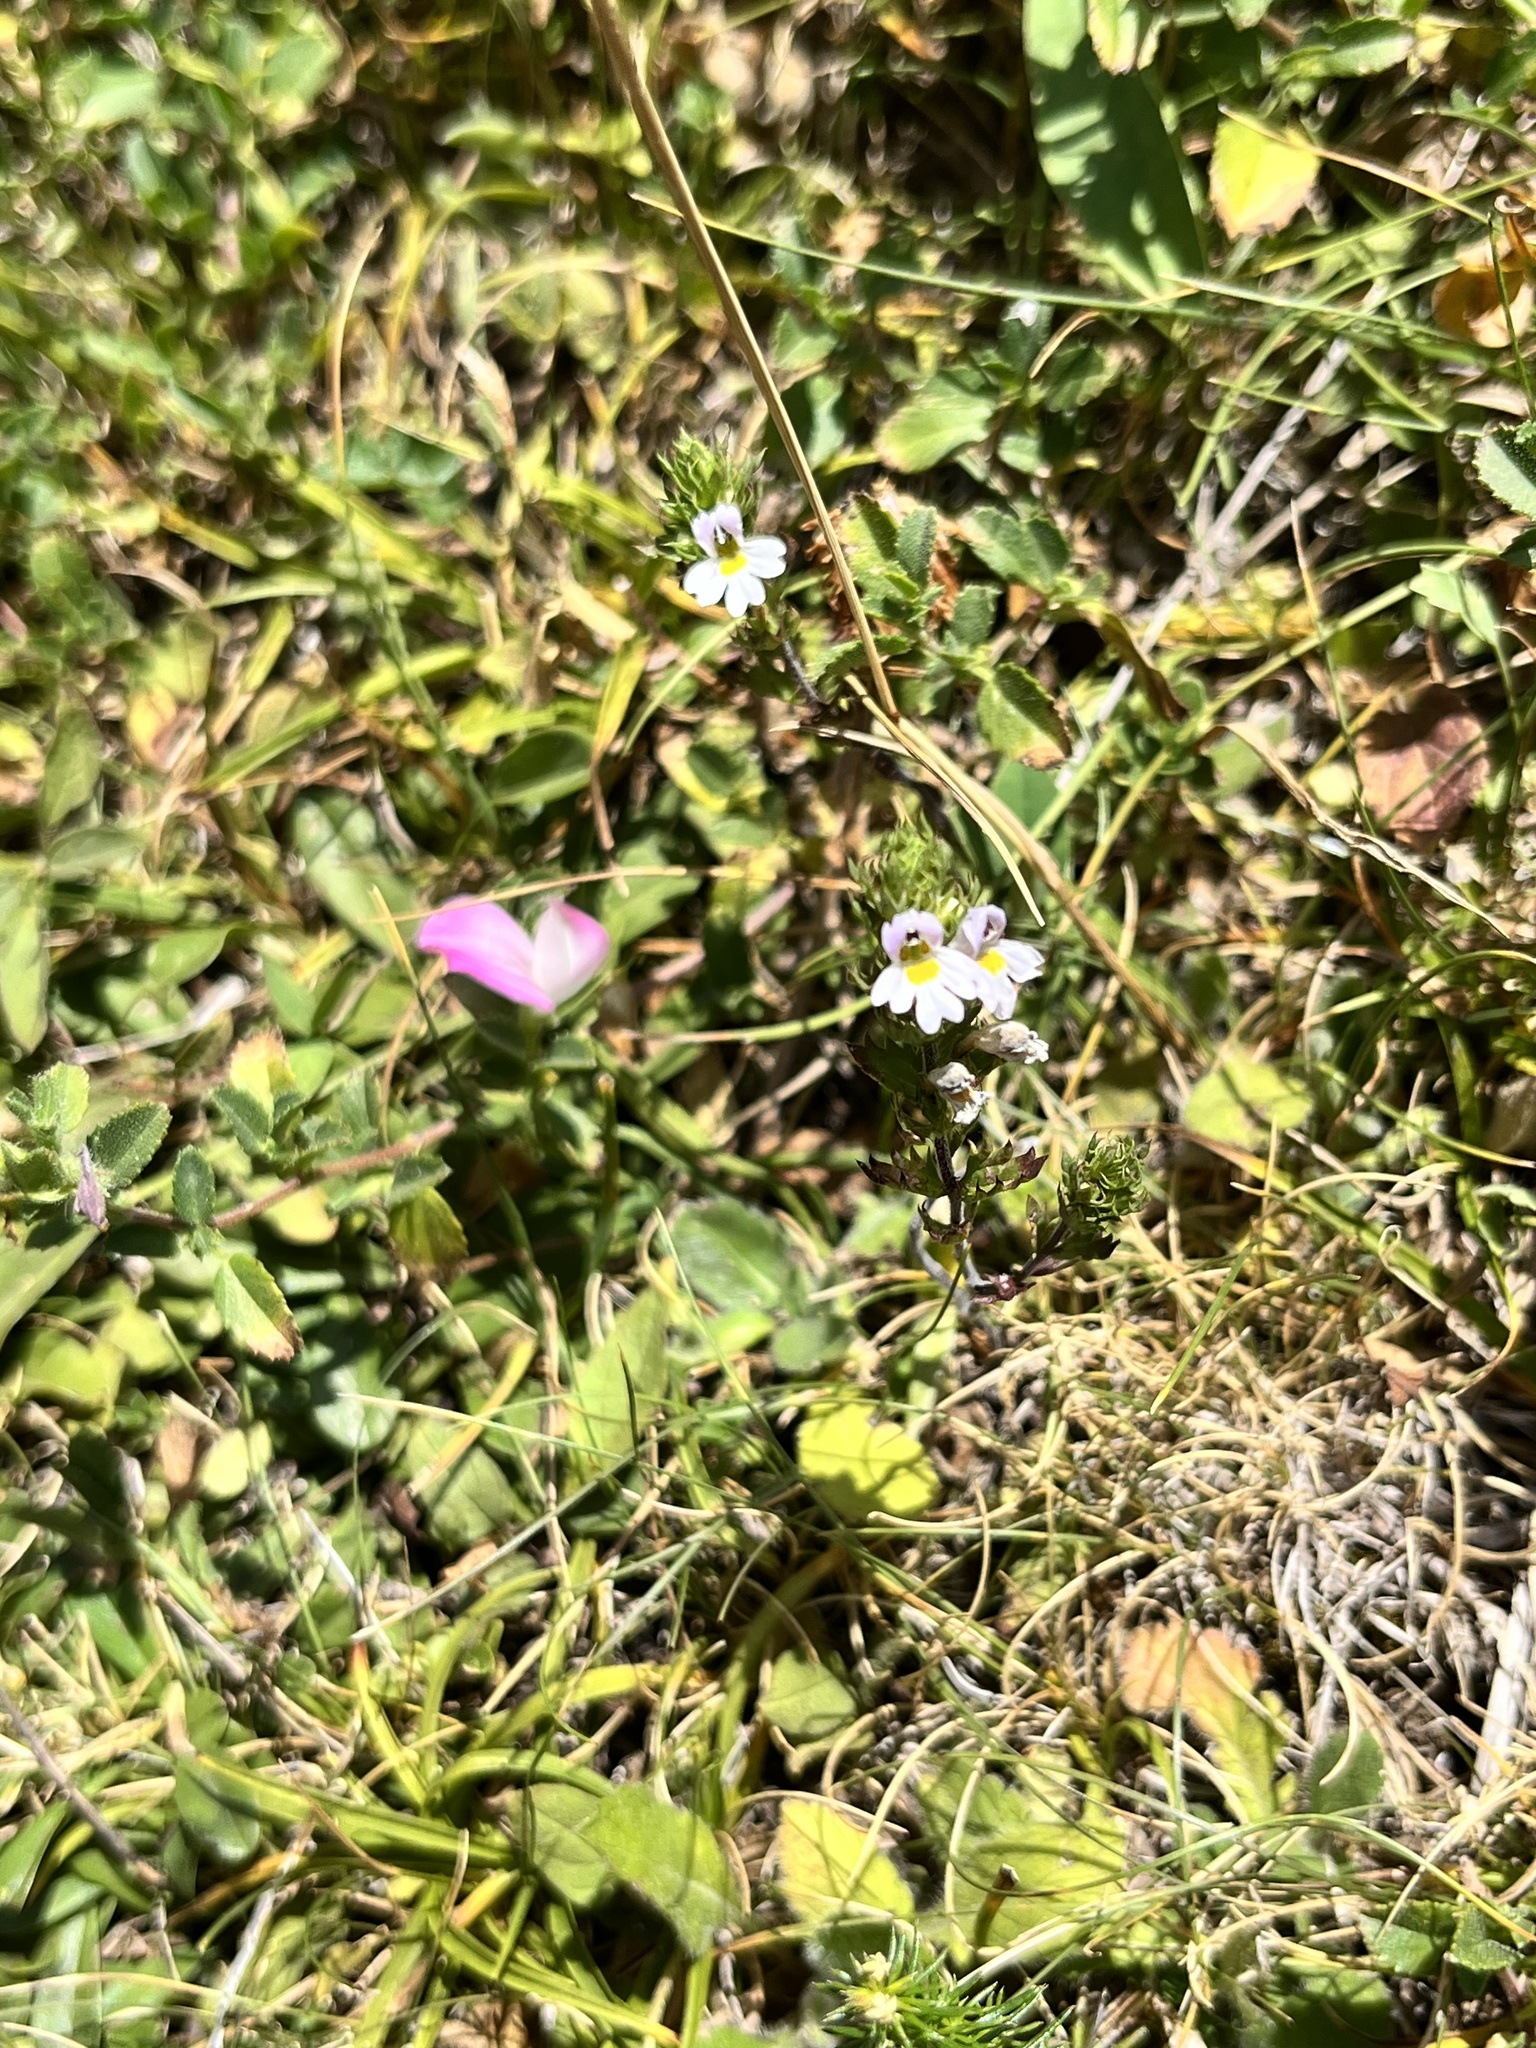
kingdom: Plantae
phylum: Tracheophyta
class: Magnoliopsida
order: Lamiales
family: Orobanchaceae
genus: Euphrasia
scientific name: Euphrasia nemorosa
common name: Common eyebright
